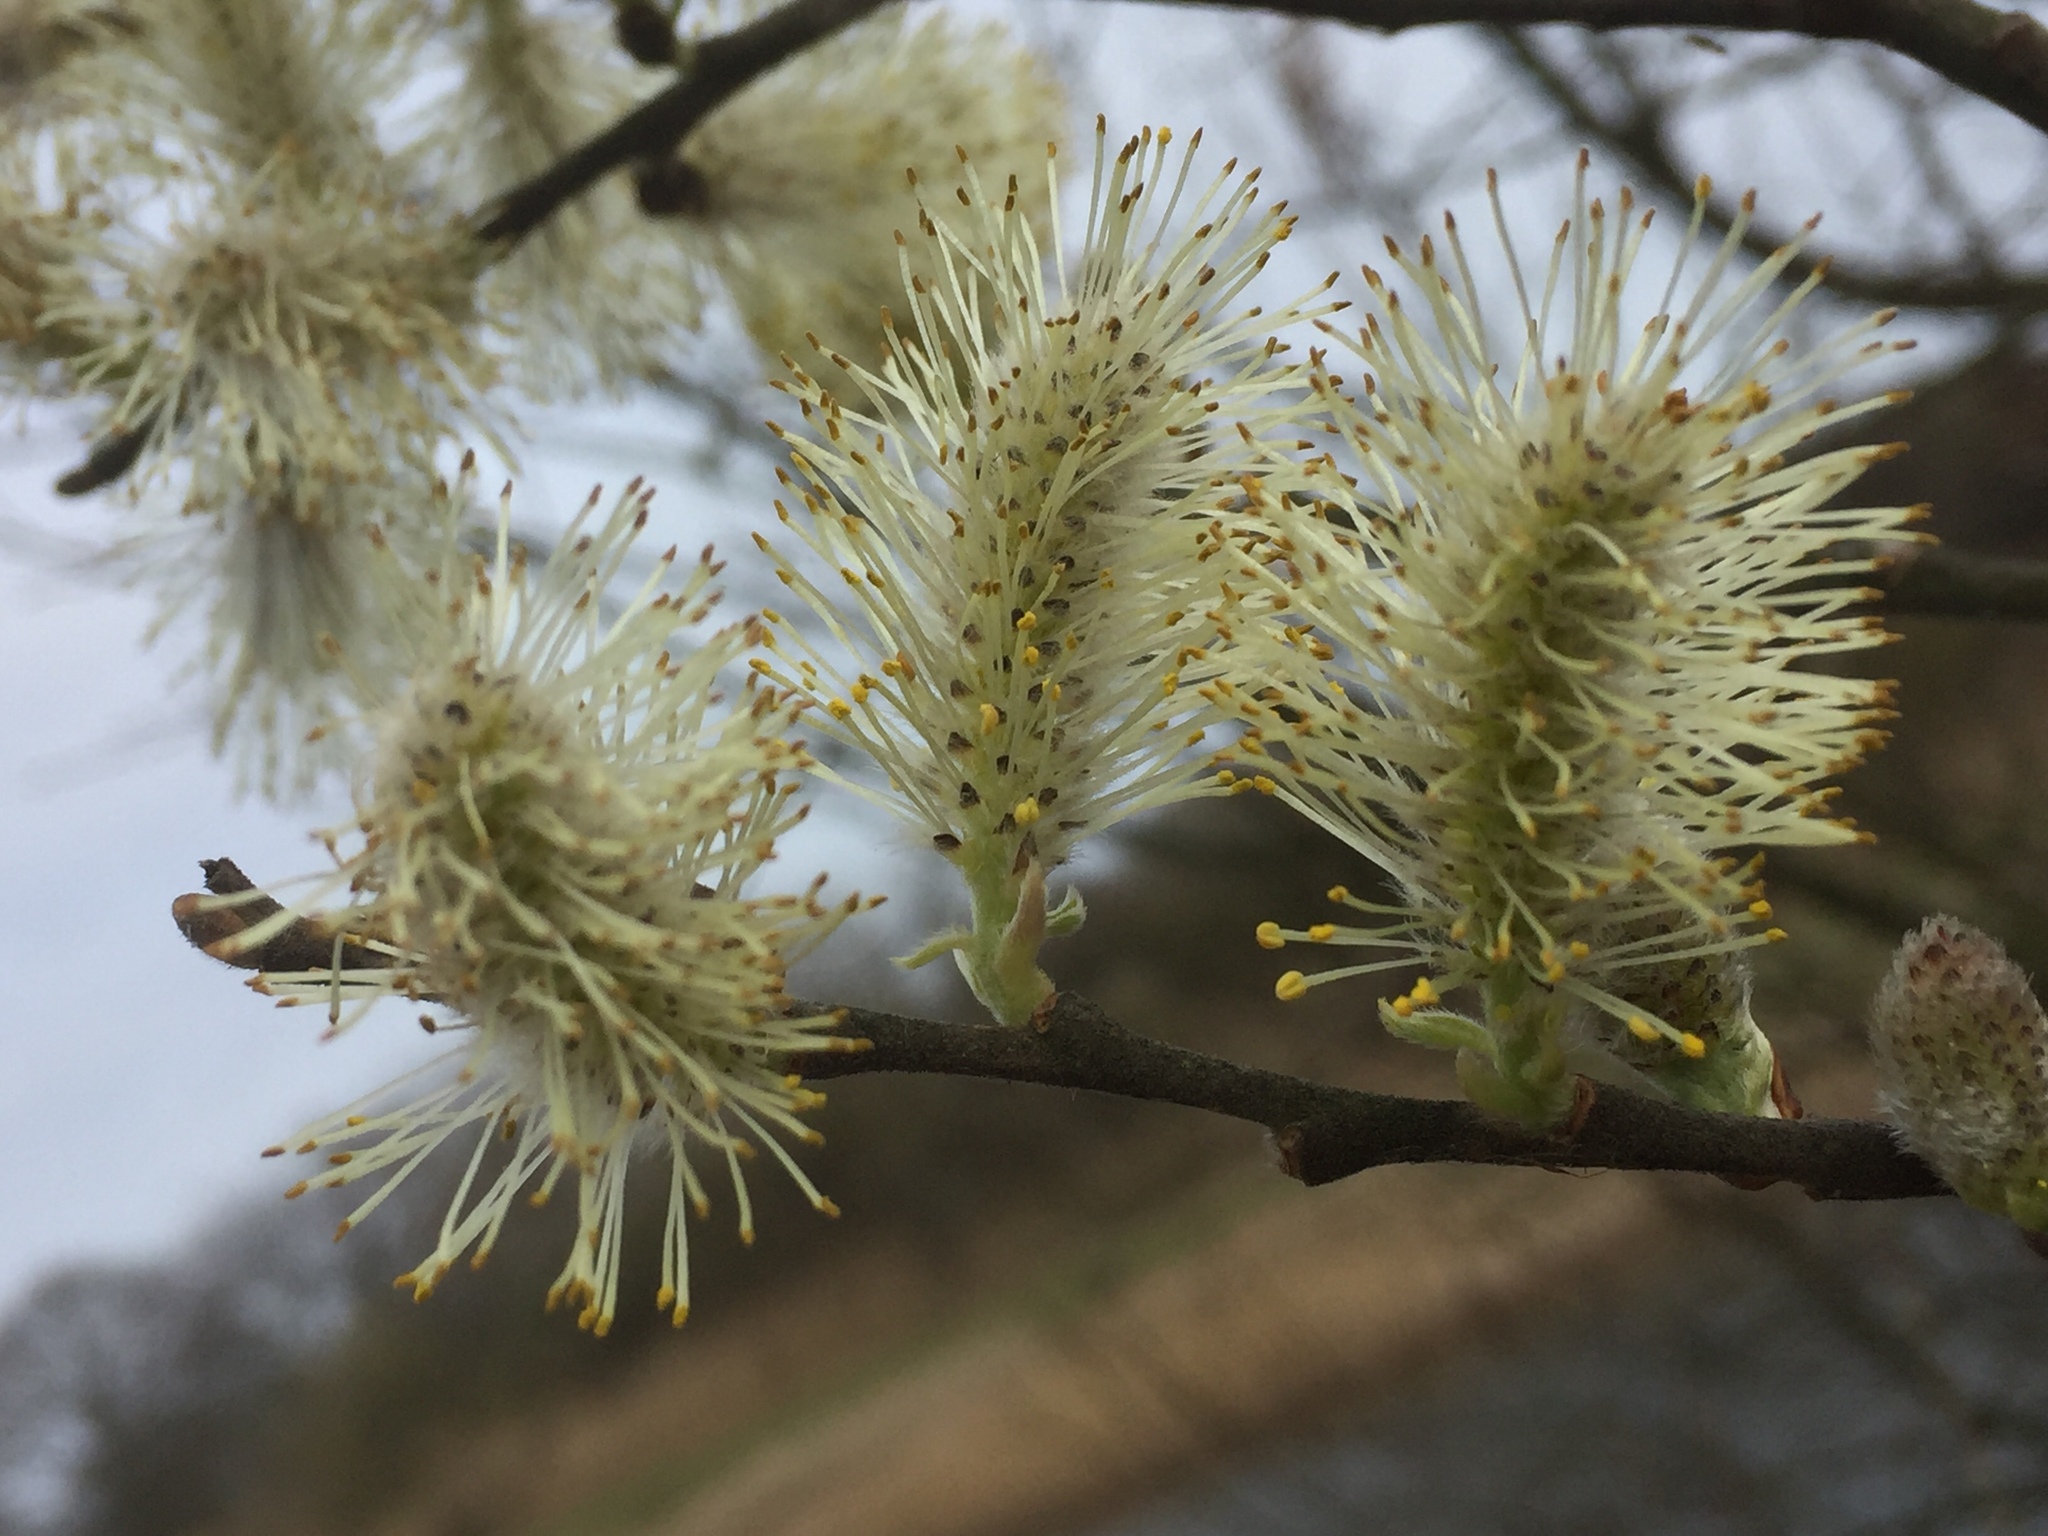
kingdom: Plantae
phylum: Tracheophyta
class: Magnoliopsida
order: Malpighiales
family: Salicaceae
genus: Salix
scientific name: Salix caprea
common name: Goat willow
